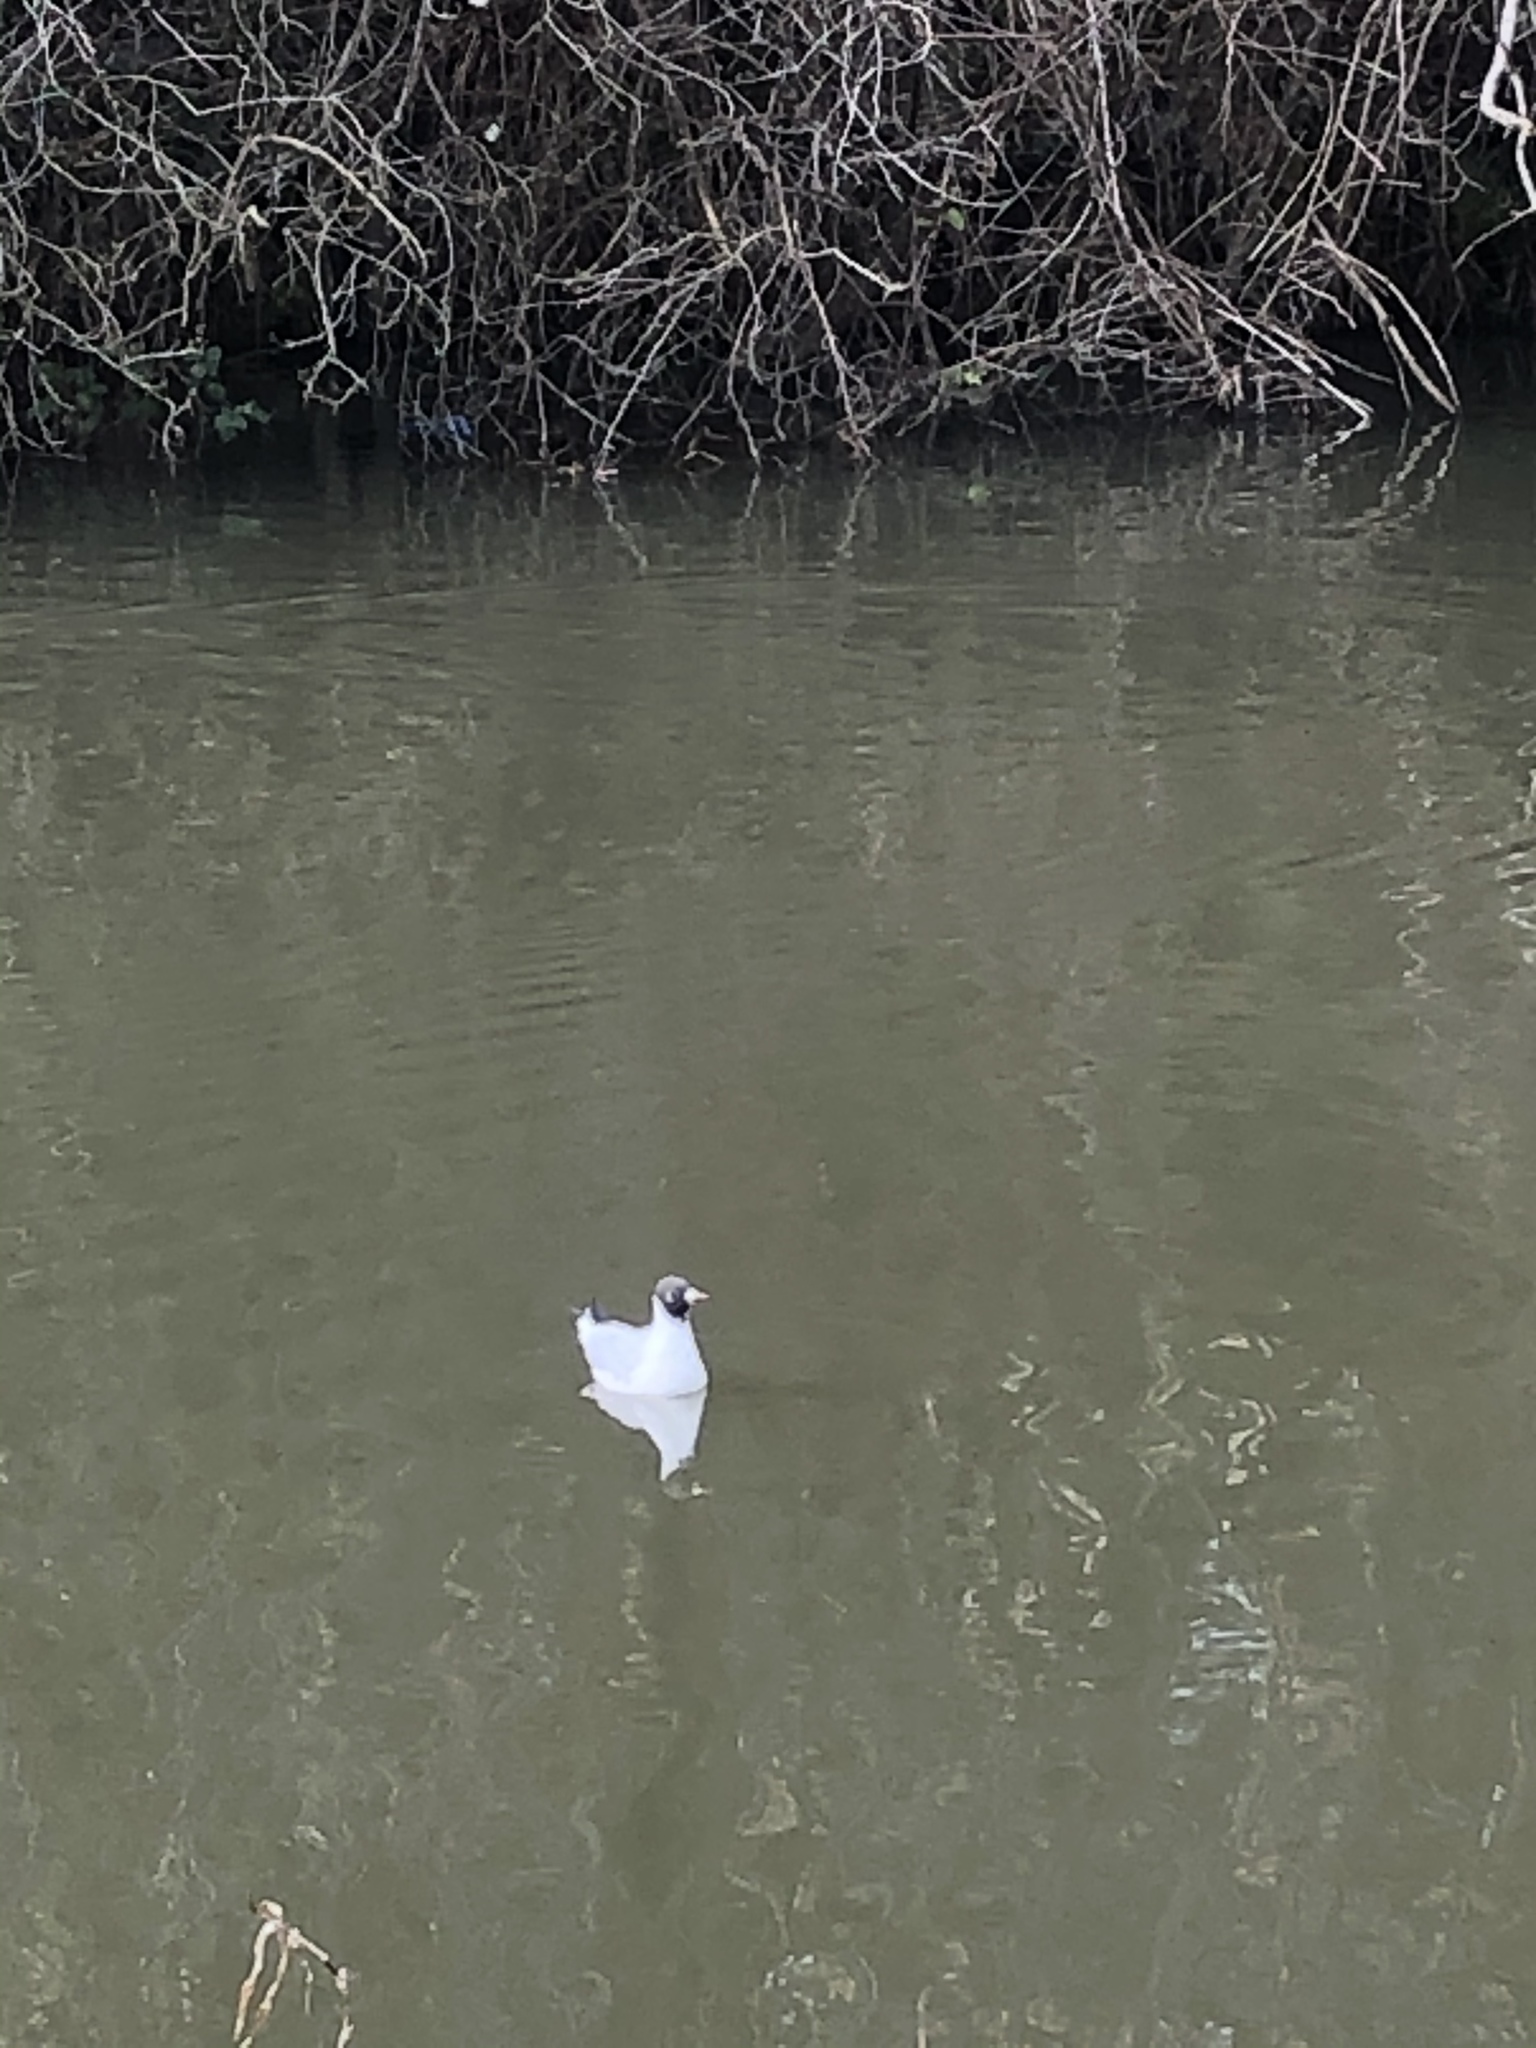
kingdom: Animalia
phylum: Chordata
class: Aves
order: Charadriiformes
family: Laridae
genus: Chroicocephalus
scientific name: Chroicocephalus ridibundus
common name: Black-headed gull
